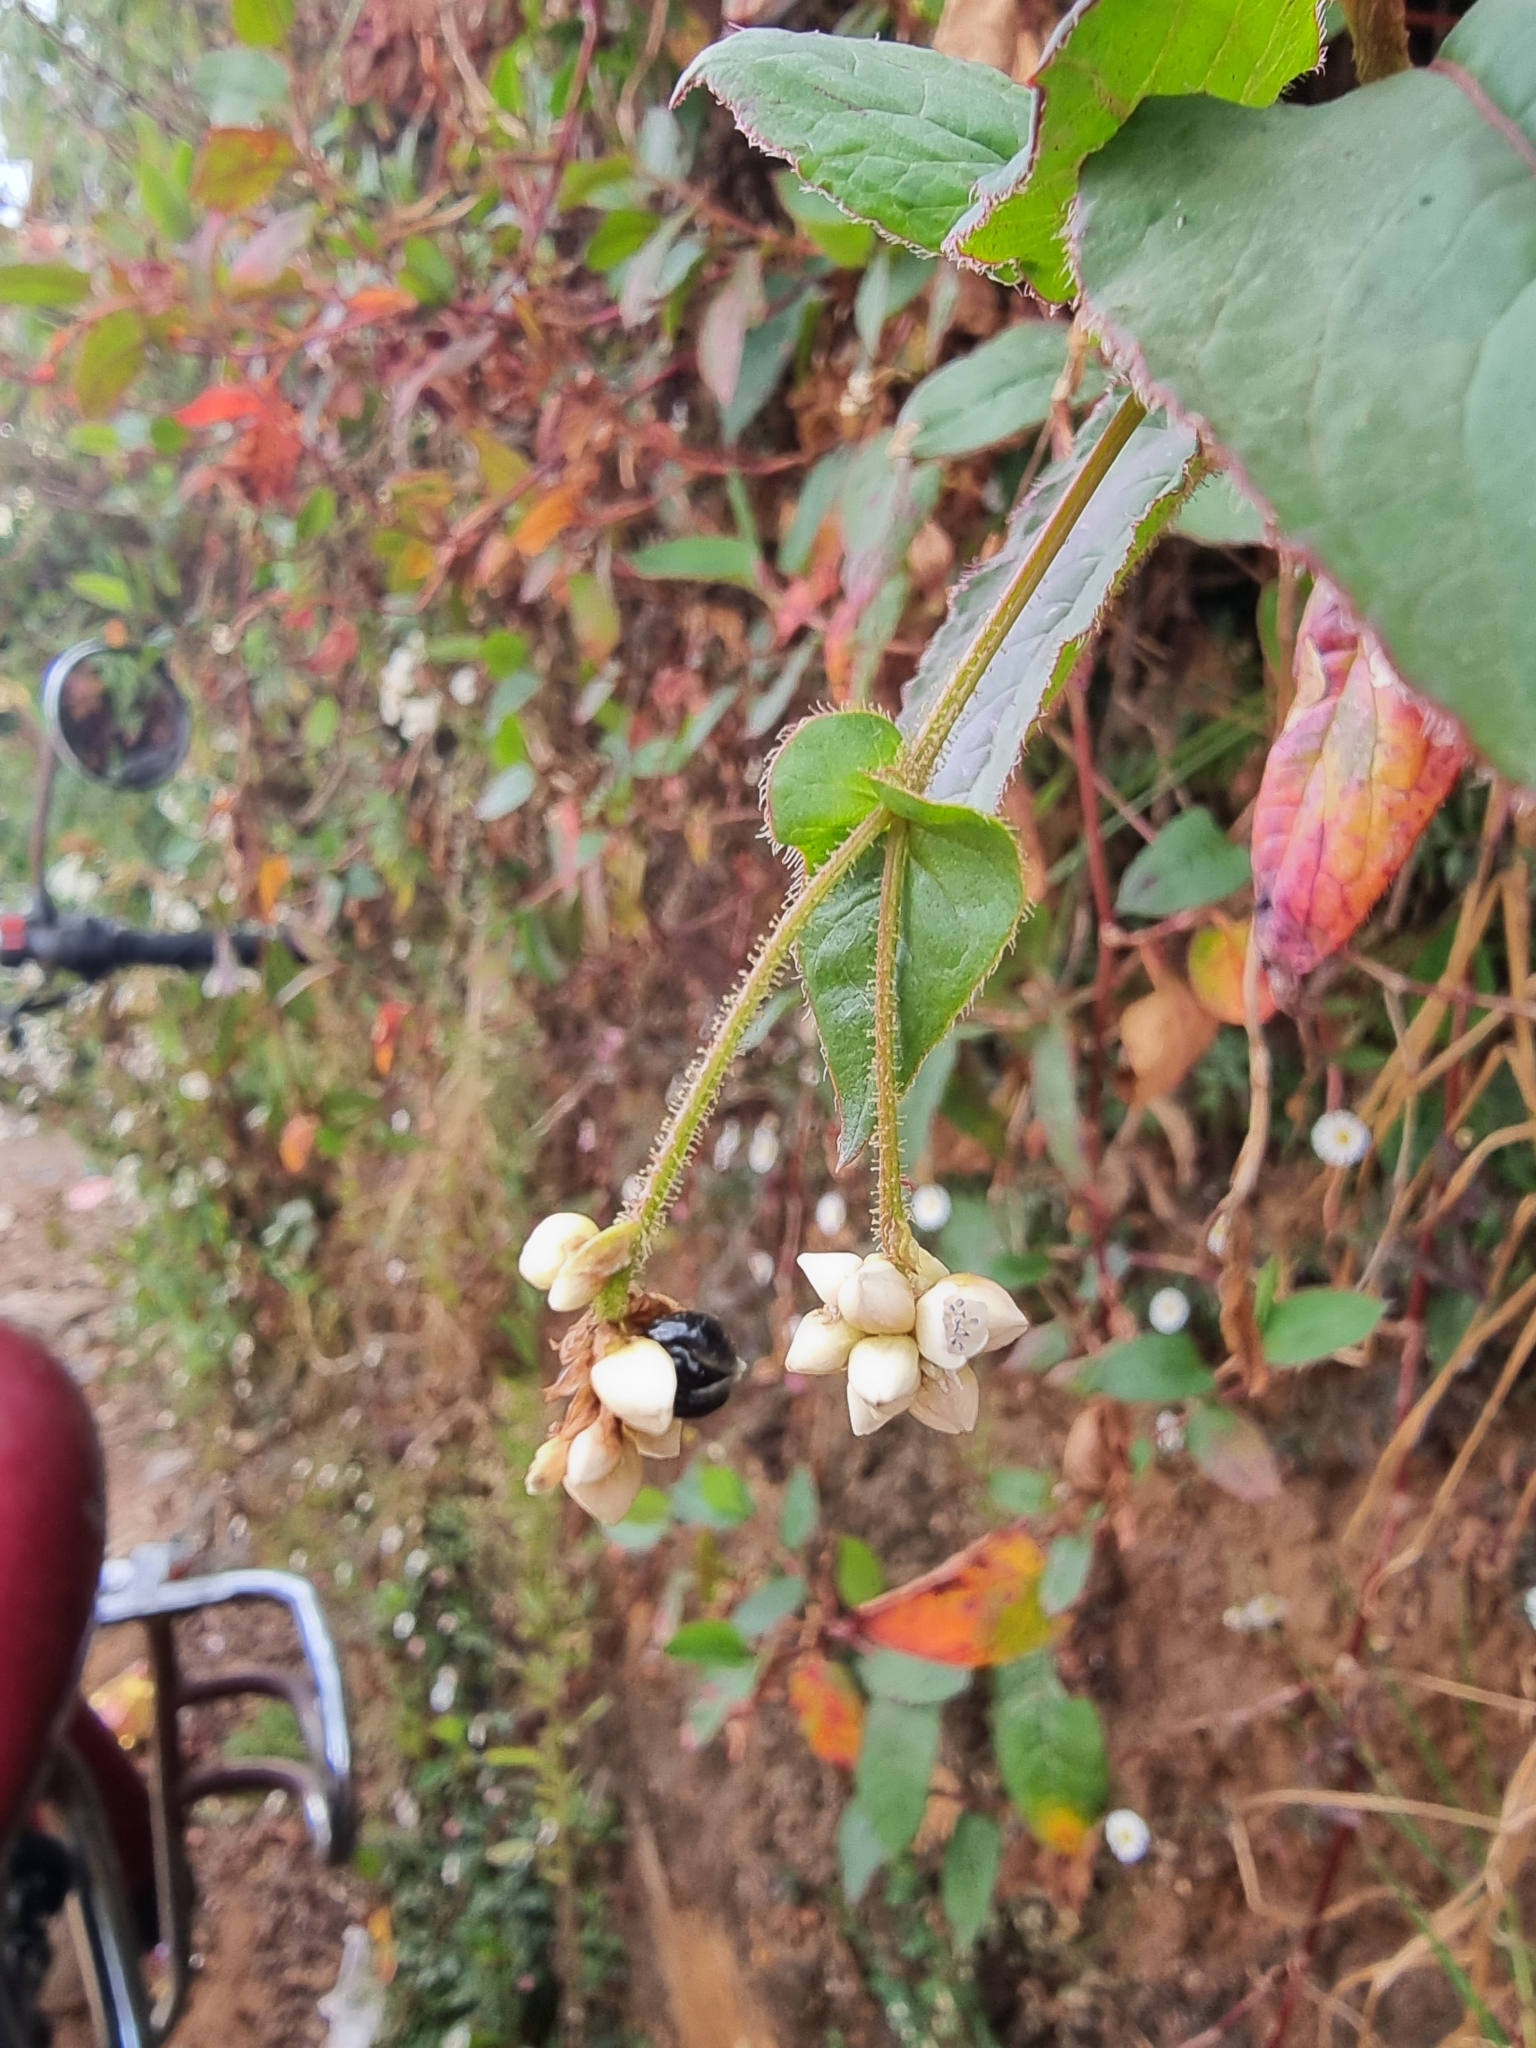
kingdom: Plantae
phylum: Tracheophyta
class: Magnoliopsida
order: Caryophyllales
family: Polygonaceae
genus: Persicaria
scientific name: Persicaria chinensis
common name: Chinese knotweed
